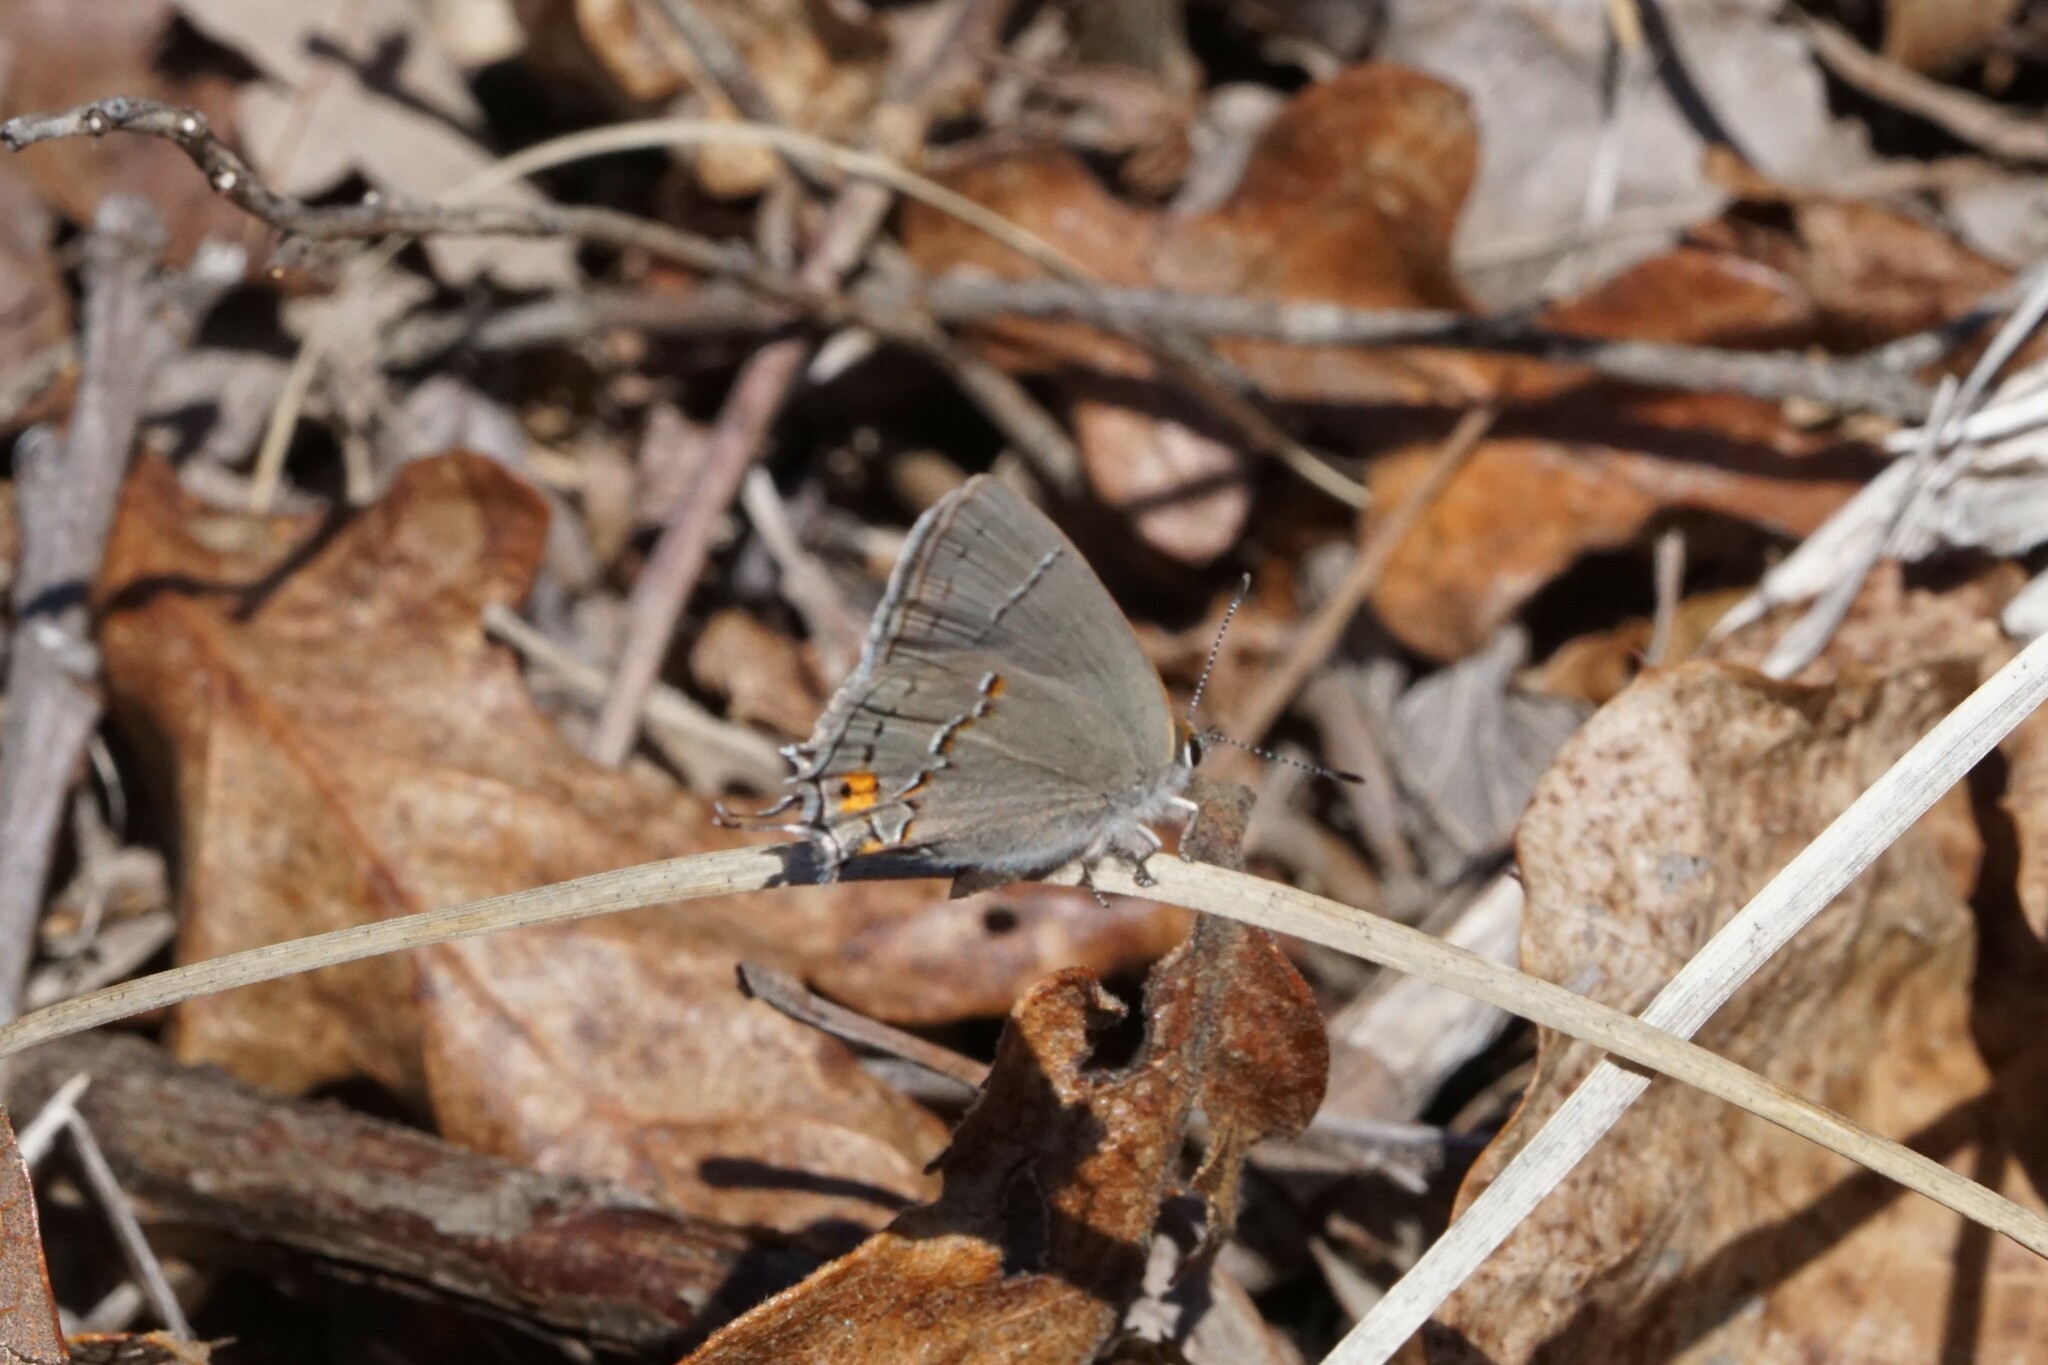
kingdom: Animalia
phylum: Arthropoda
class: Insecta
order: Lepidoptera
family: Lycaenidae
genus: Strymon
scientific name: Strymon melinus
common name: Gray hairstreak
